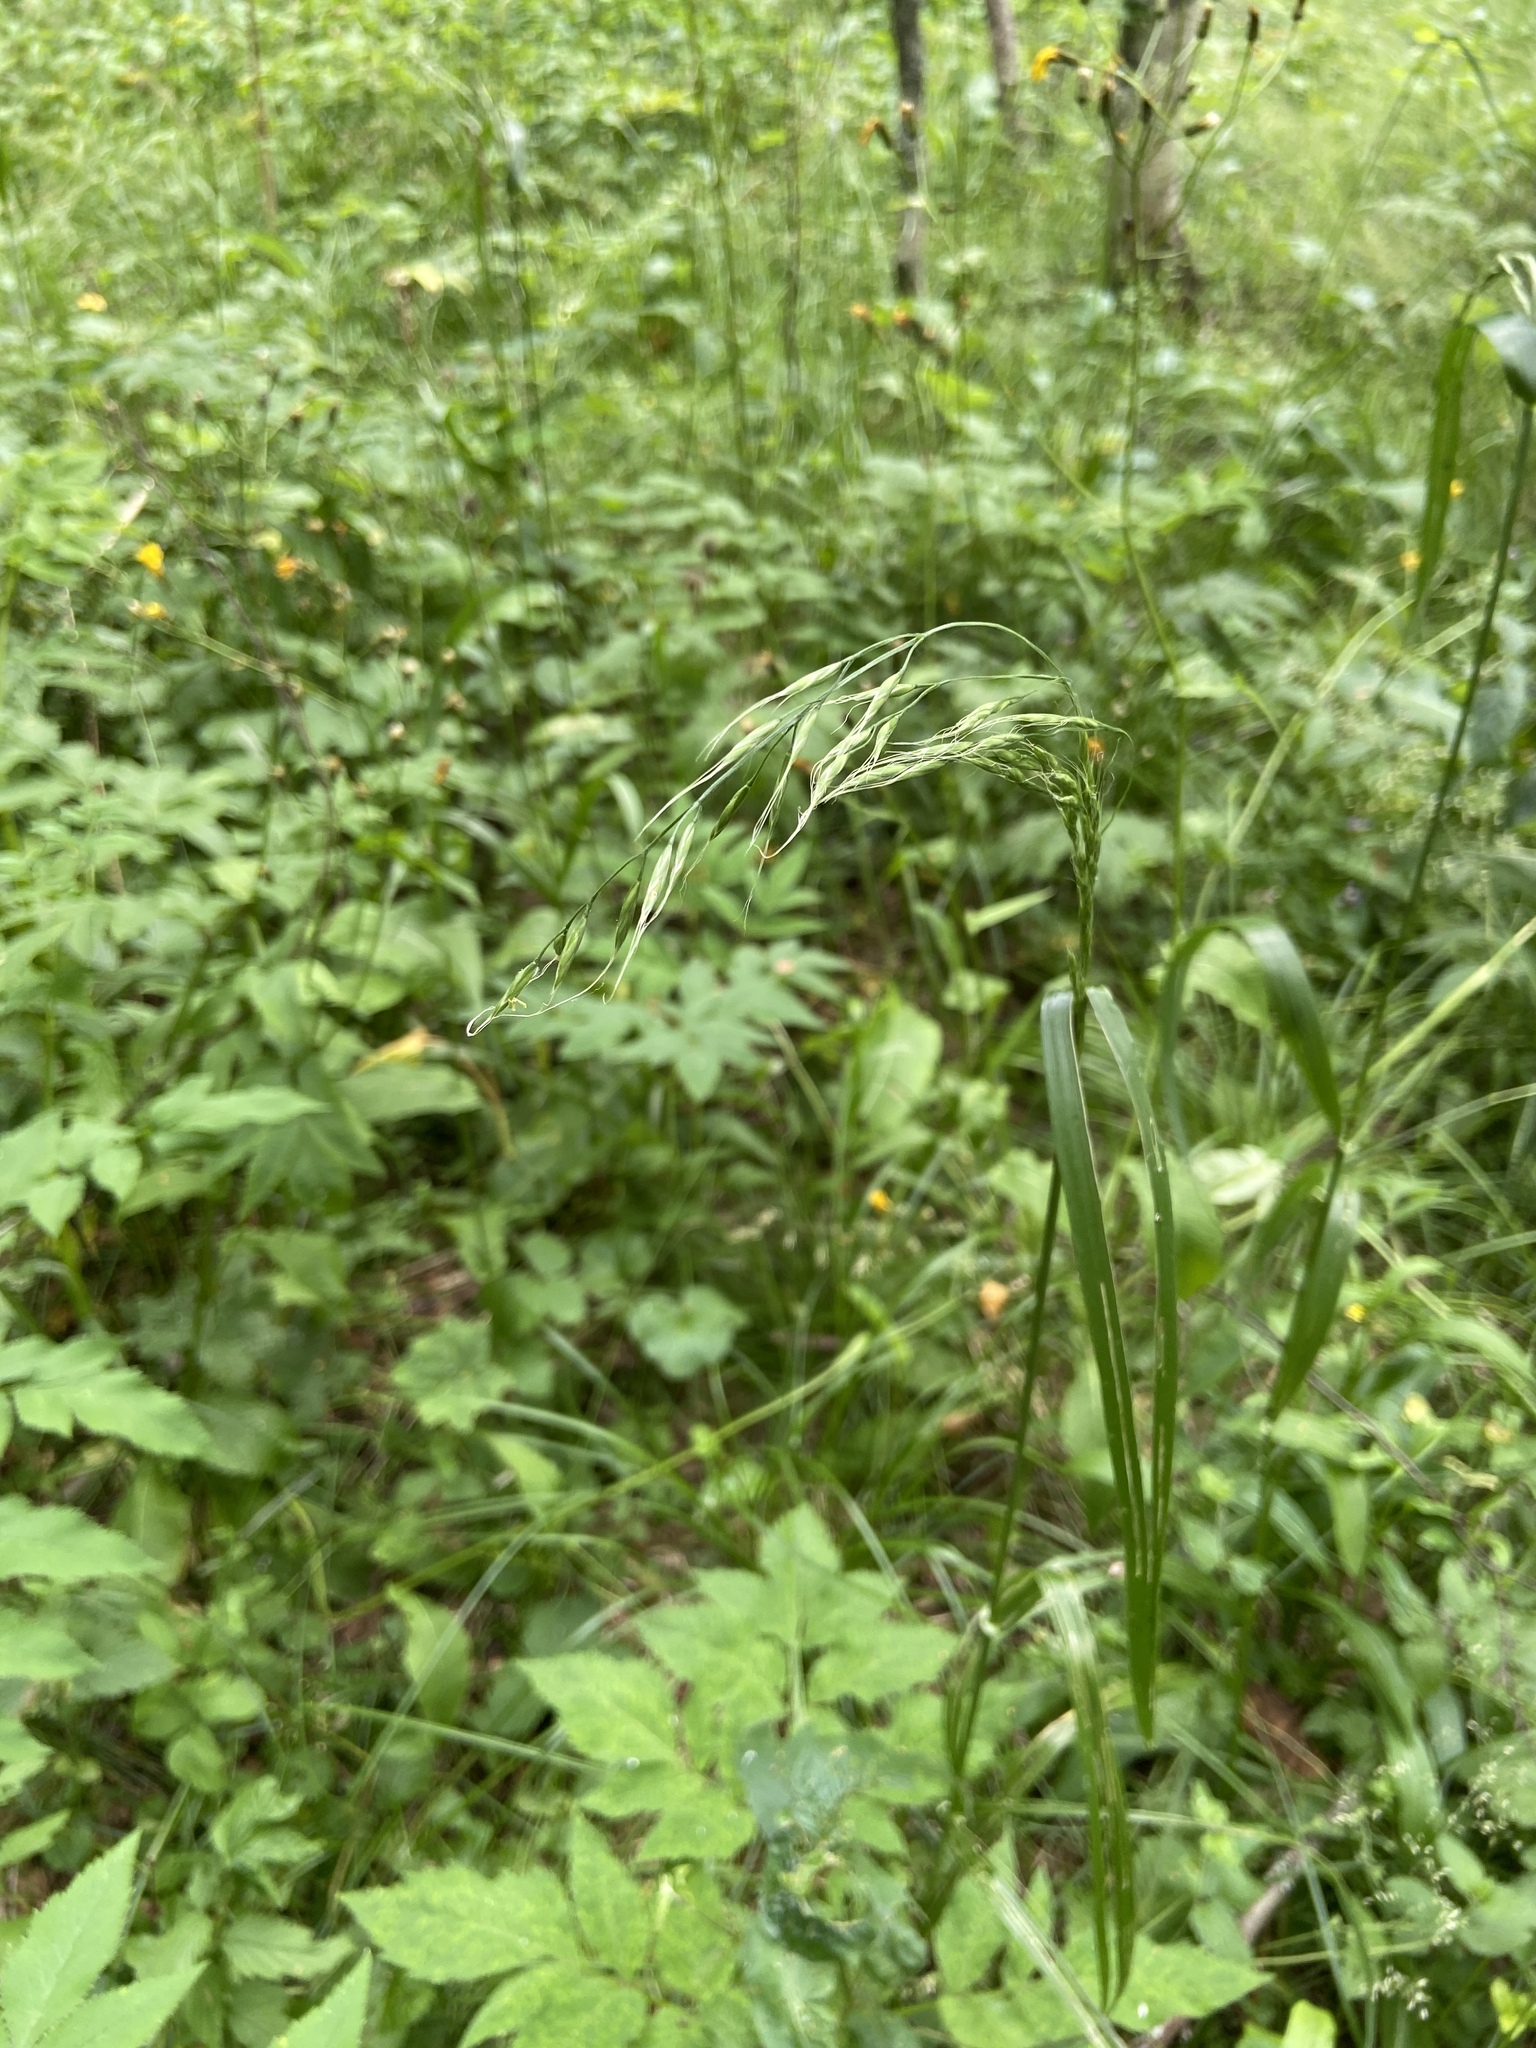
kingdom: Plantae
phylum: Tracheophyta
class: Liliopsida
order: Poales
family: Poaceae
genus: Lolium
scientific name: Lolium giganteum
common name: Giant fescue
